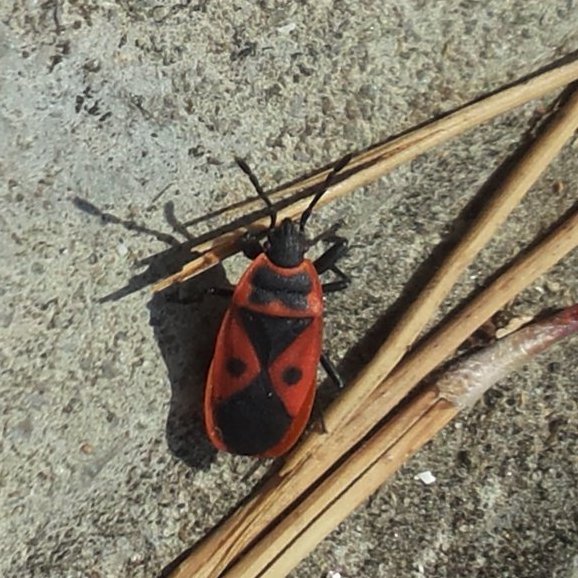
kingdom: Animalia
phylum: Arthropoda
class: Insecta
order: Hemiptera
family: Pyrrhocoridae
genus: Scantius
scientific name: Scantius aegyptius
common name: Red bug
